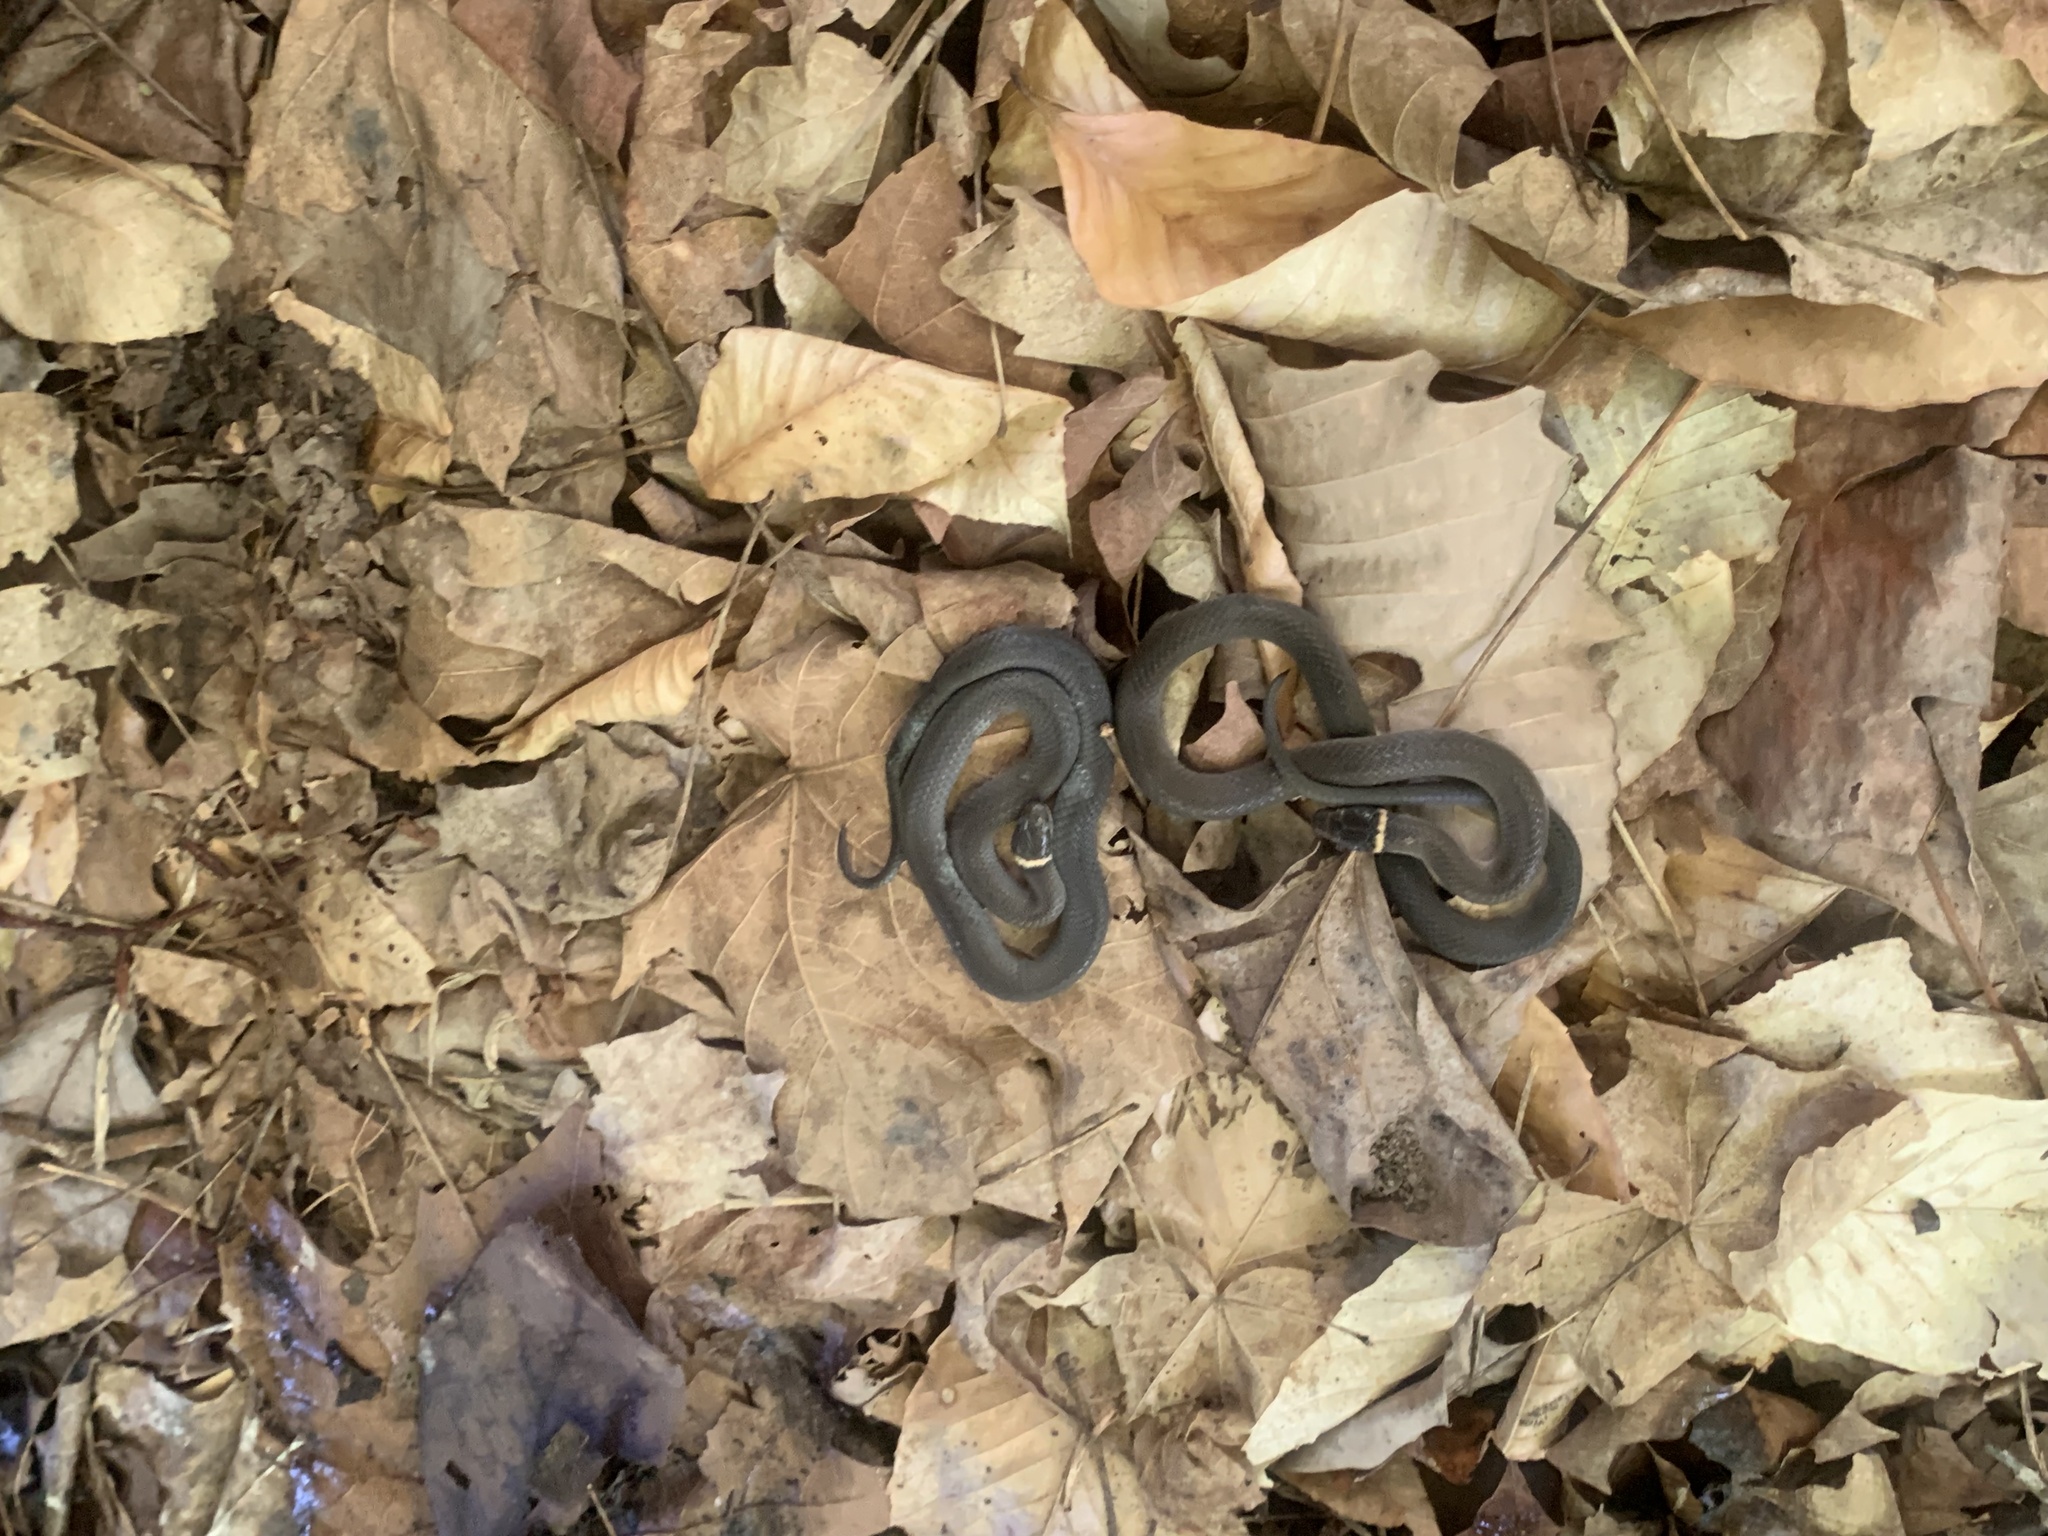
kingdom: Animalia
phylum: Chordata
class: Squamata
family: Colubridae
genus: Diadophis
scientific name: Diadophis punctatus
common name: Ringneck snake
